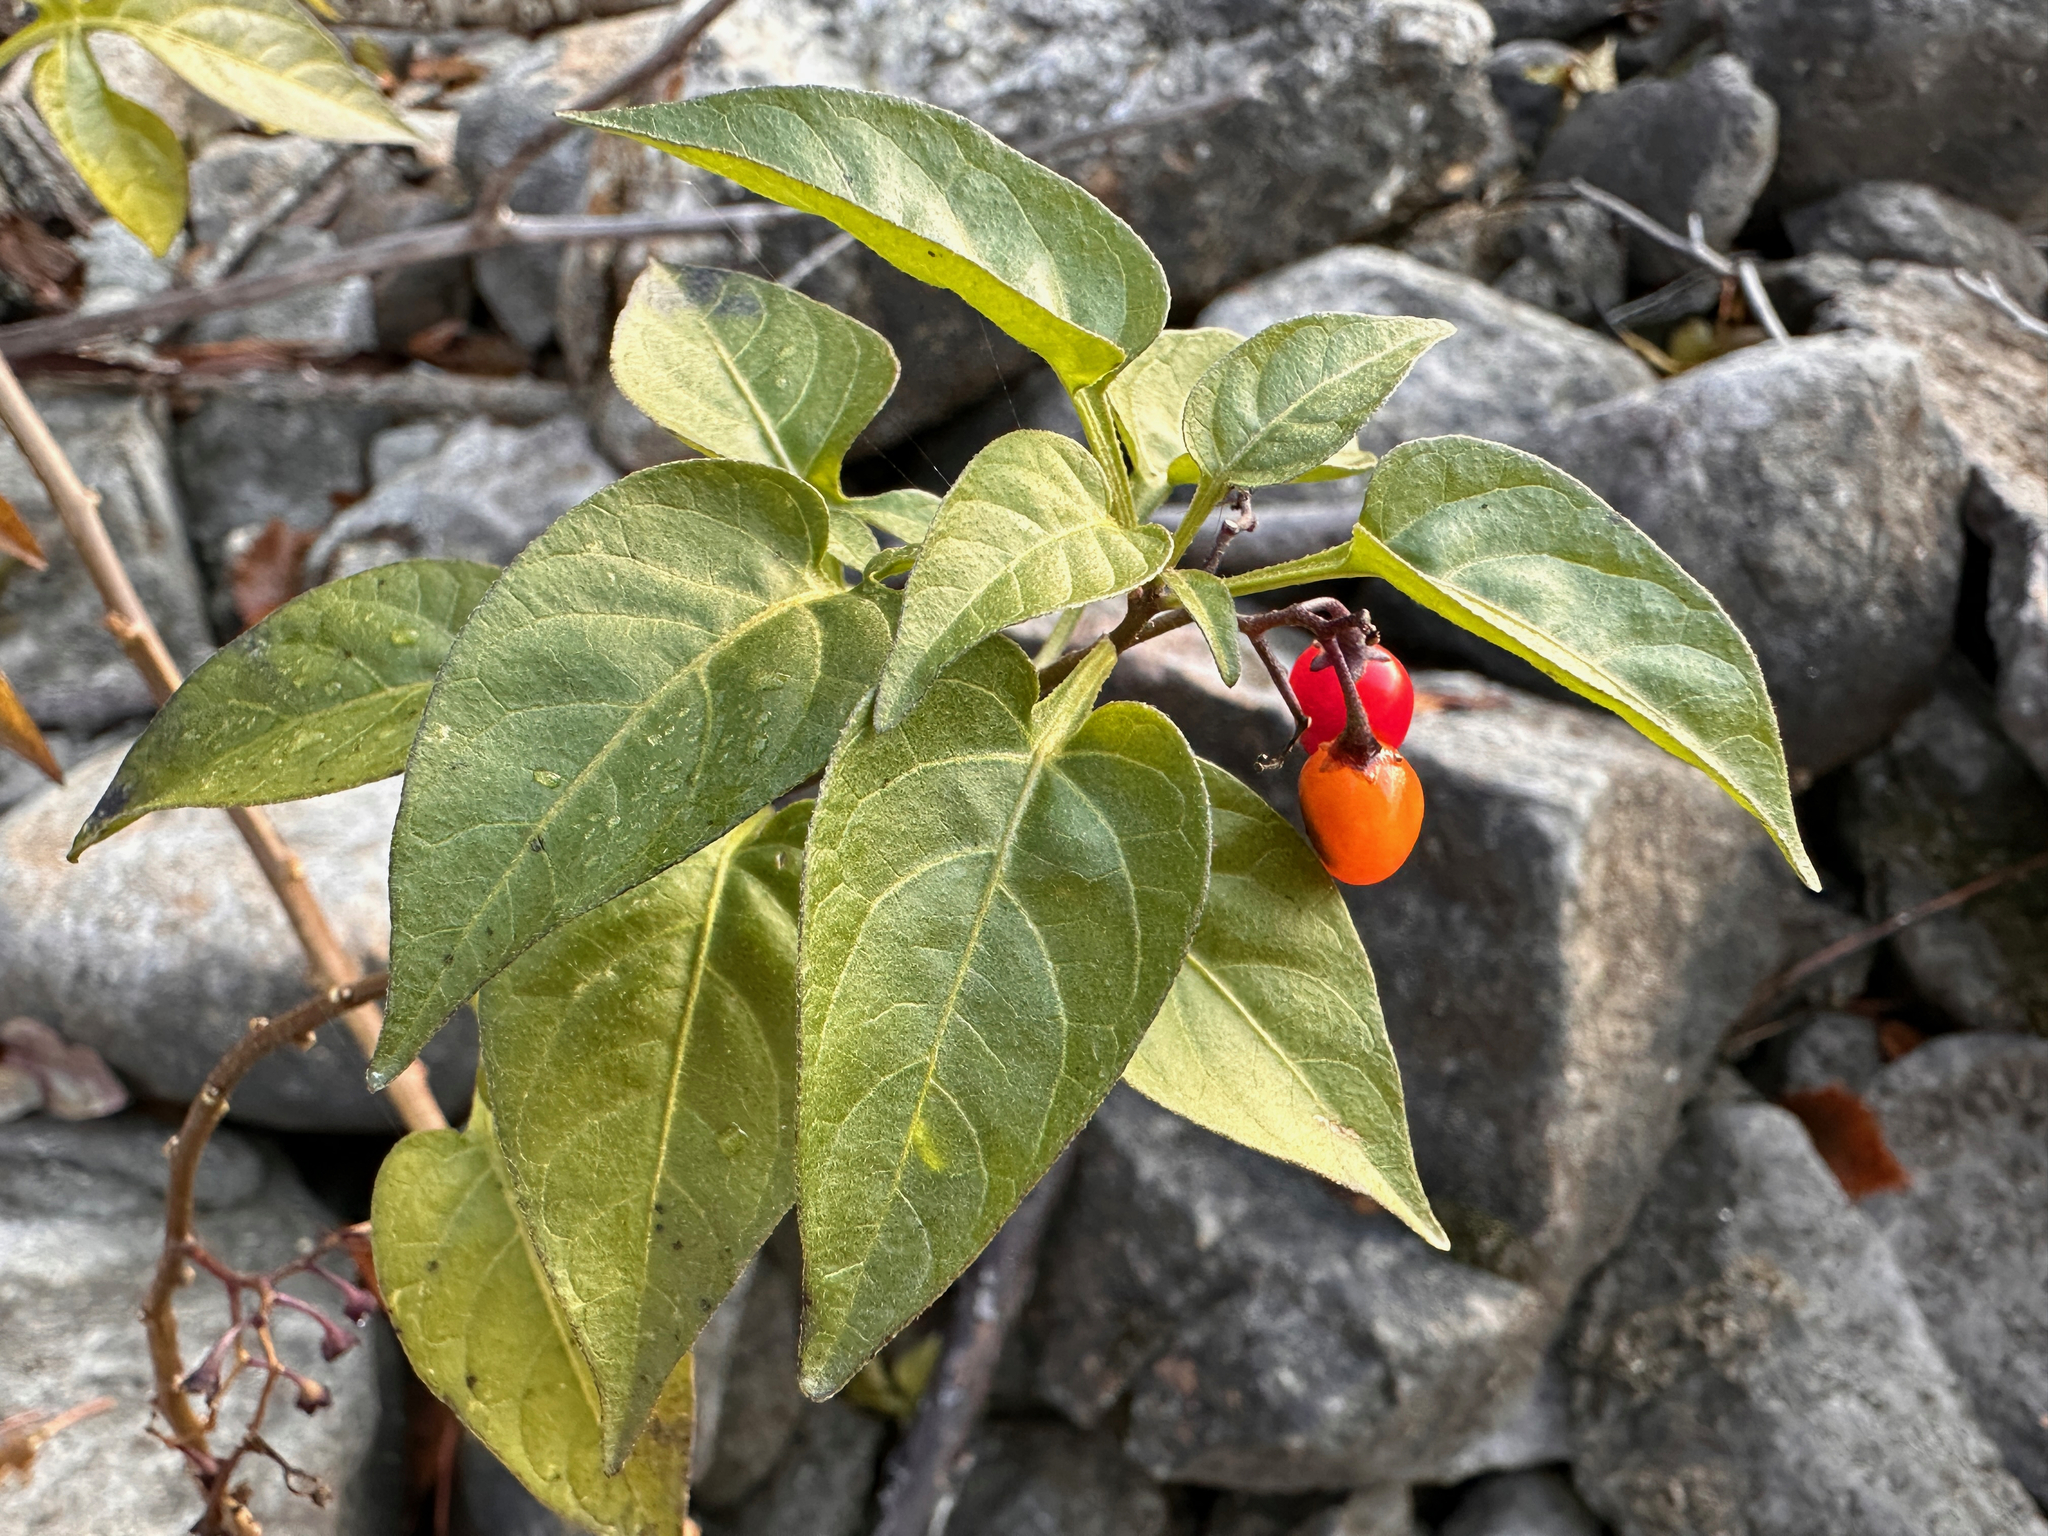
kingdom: Plantae
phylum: Tracheophyta
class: Magnoliopsida
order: Solanales
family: Solanaceae
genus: Solanum
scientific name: Solanum dulcamara
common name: Climbing nightshade
